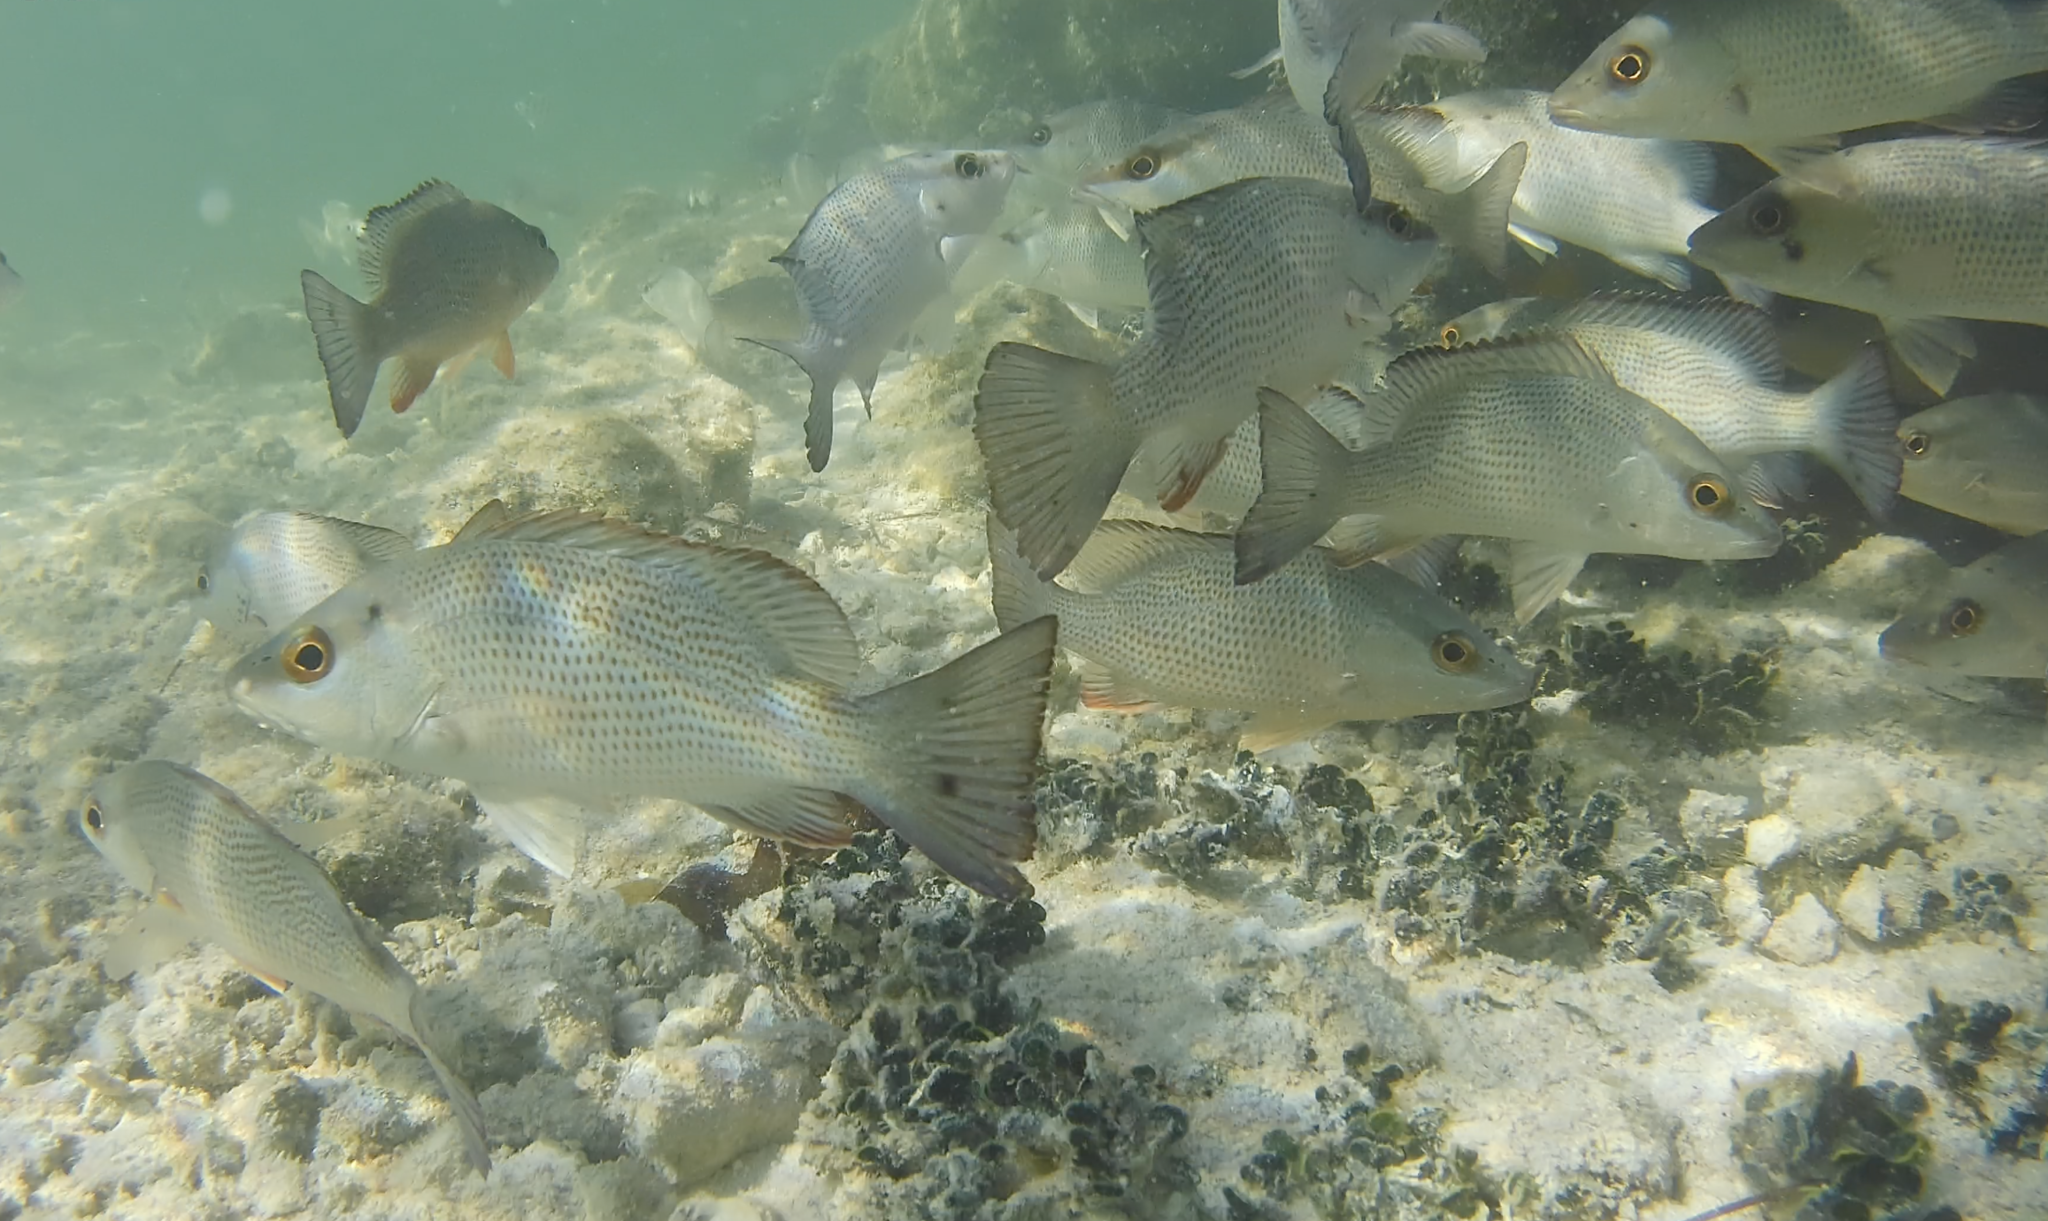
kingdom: Animalia
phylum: Chordata
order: Perciformes
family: Lutjanidae
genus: Lutjanus
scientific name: Lutjanus griseus
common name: Gray snapper
